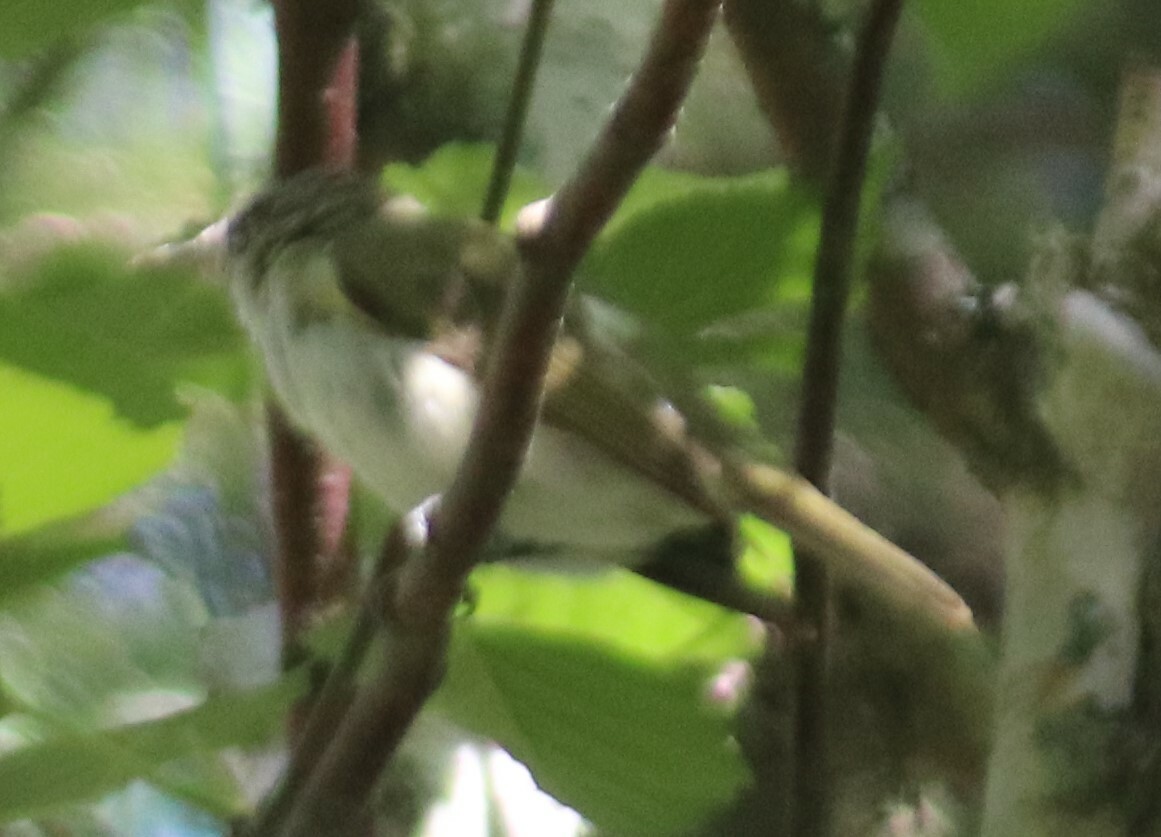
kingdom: Animalia
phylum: Chordata
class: Aves
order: Passeriformes
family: Cardinalidae
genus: Piranga
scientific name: Piranga ludoviciana
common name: Western tanager
